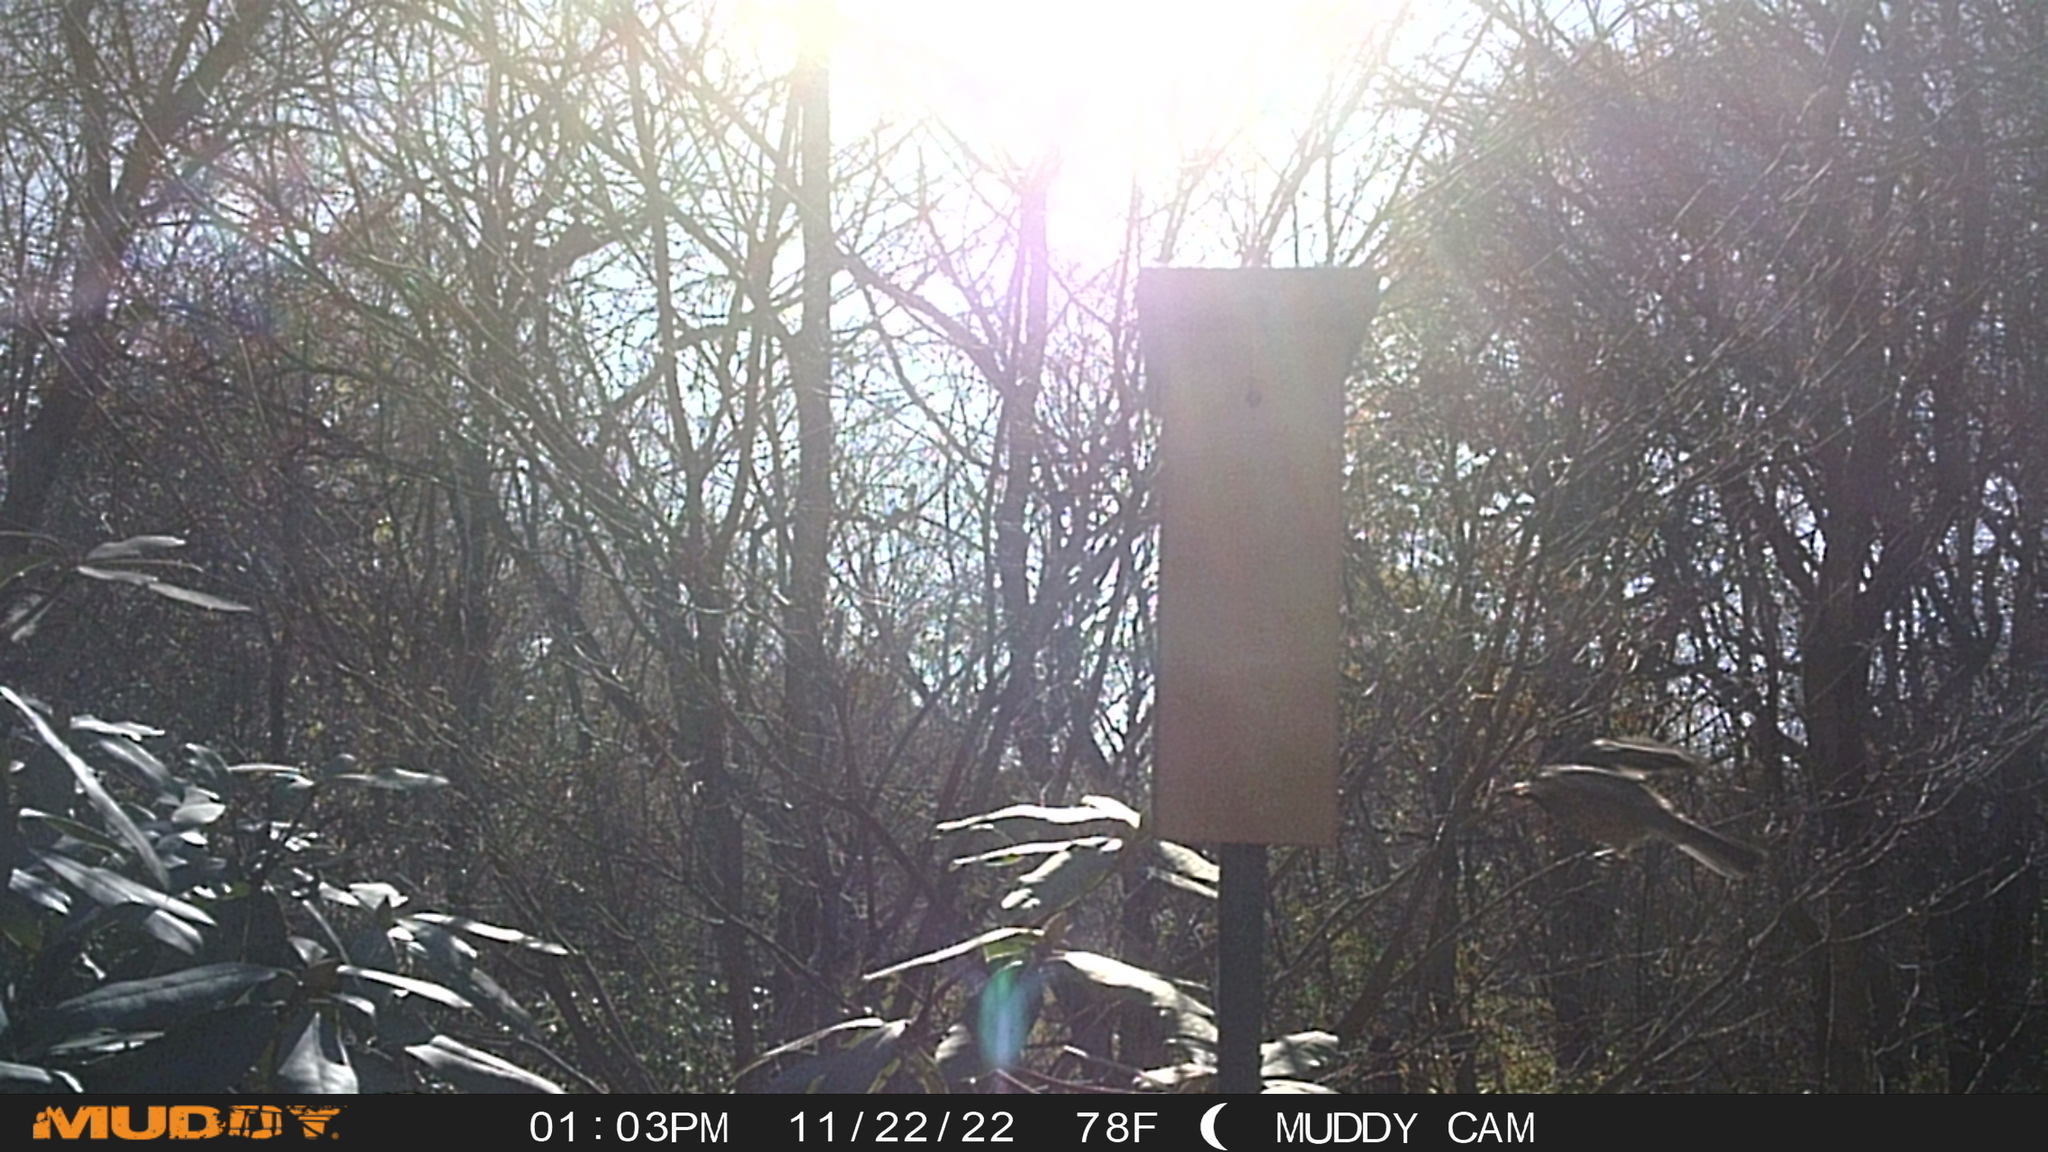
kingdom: Animalia
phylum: Chordata
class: Aves
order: Passeriformes
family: Turdidae
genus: Turdus
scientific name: Turdus migratorius
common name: American robin
